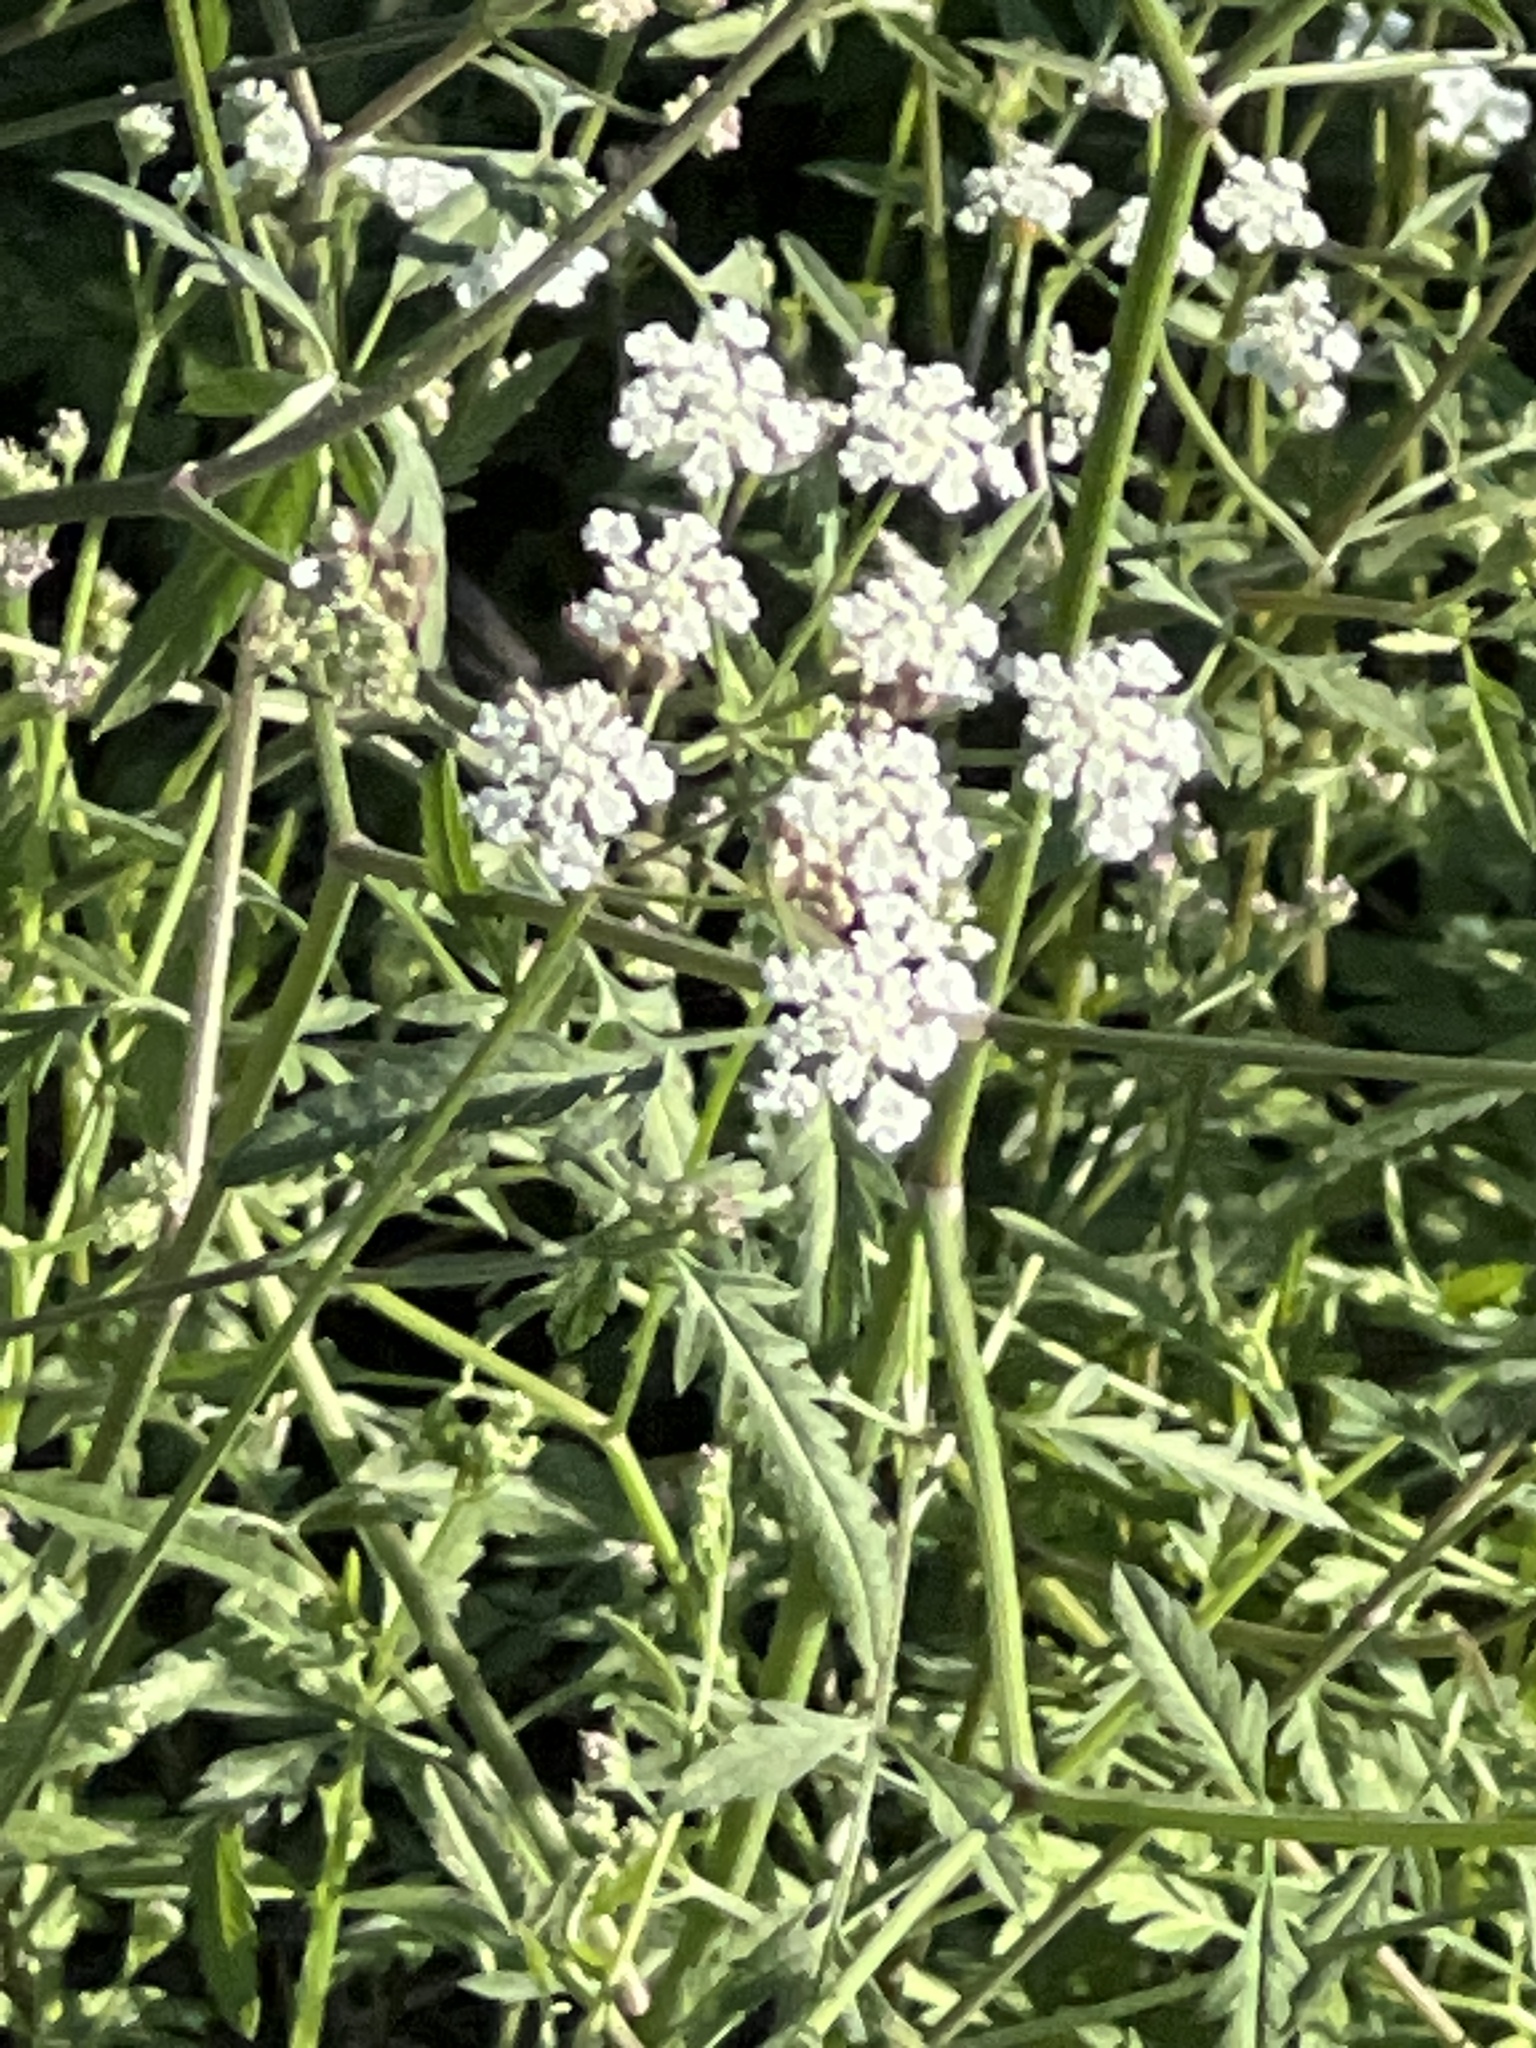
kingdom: Plantae
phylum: Tracheophyta
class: Magnoliopsida
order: Apiales
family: Apiaceae
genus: Torilis
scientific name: Torilis arvensis
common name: Spreading hedge-parsley
